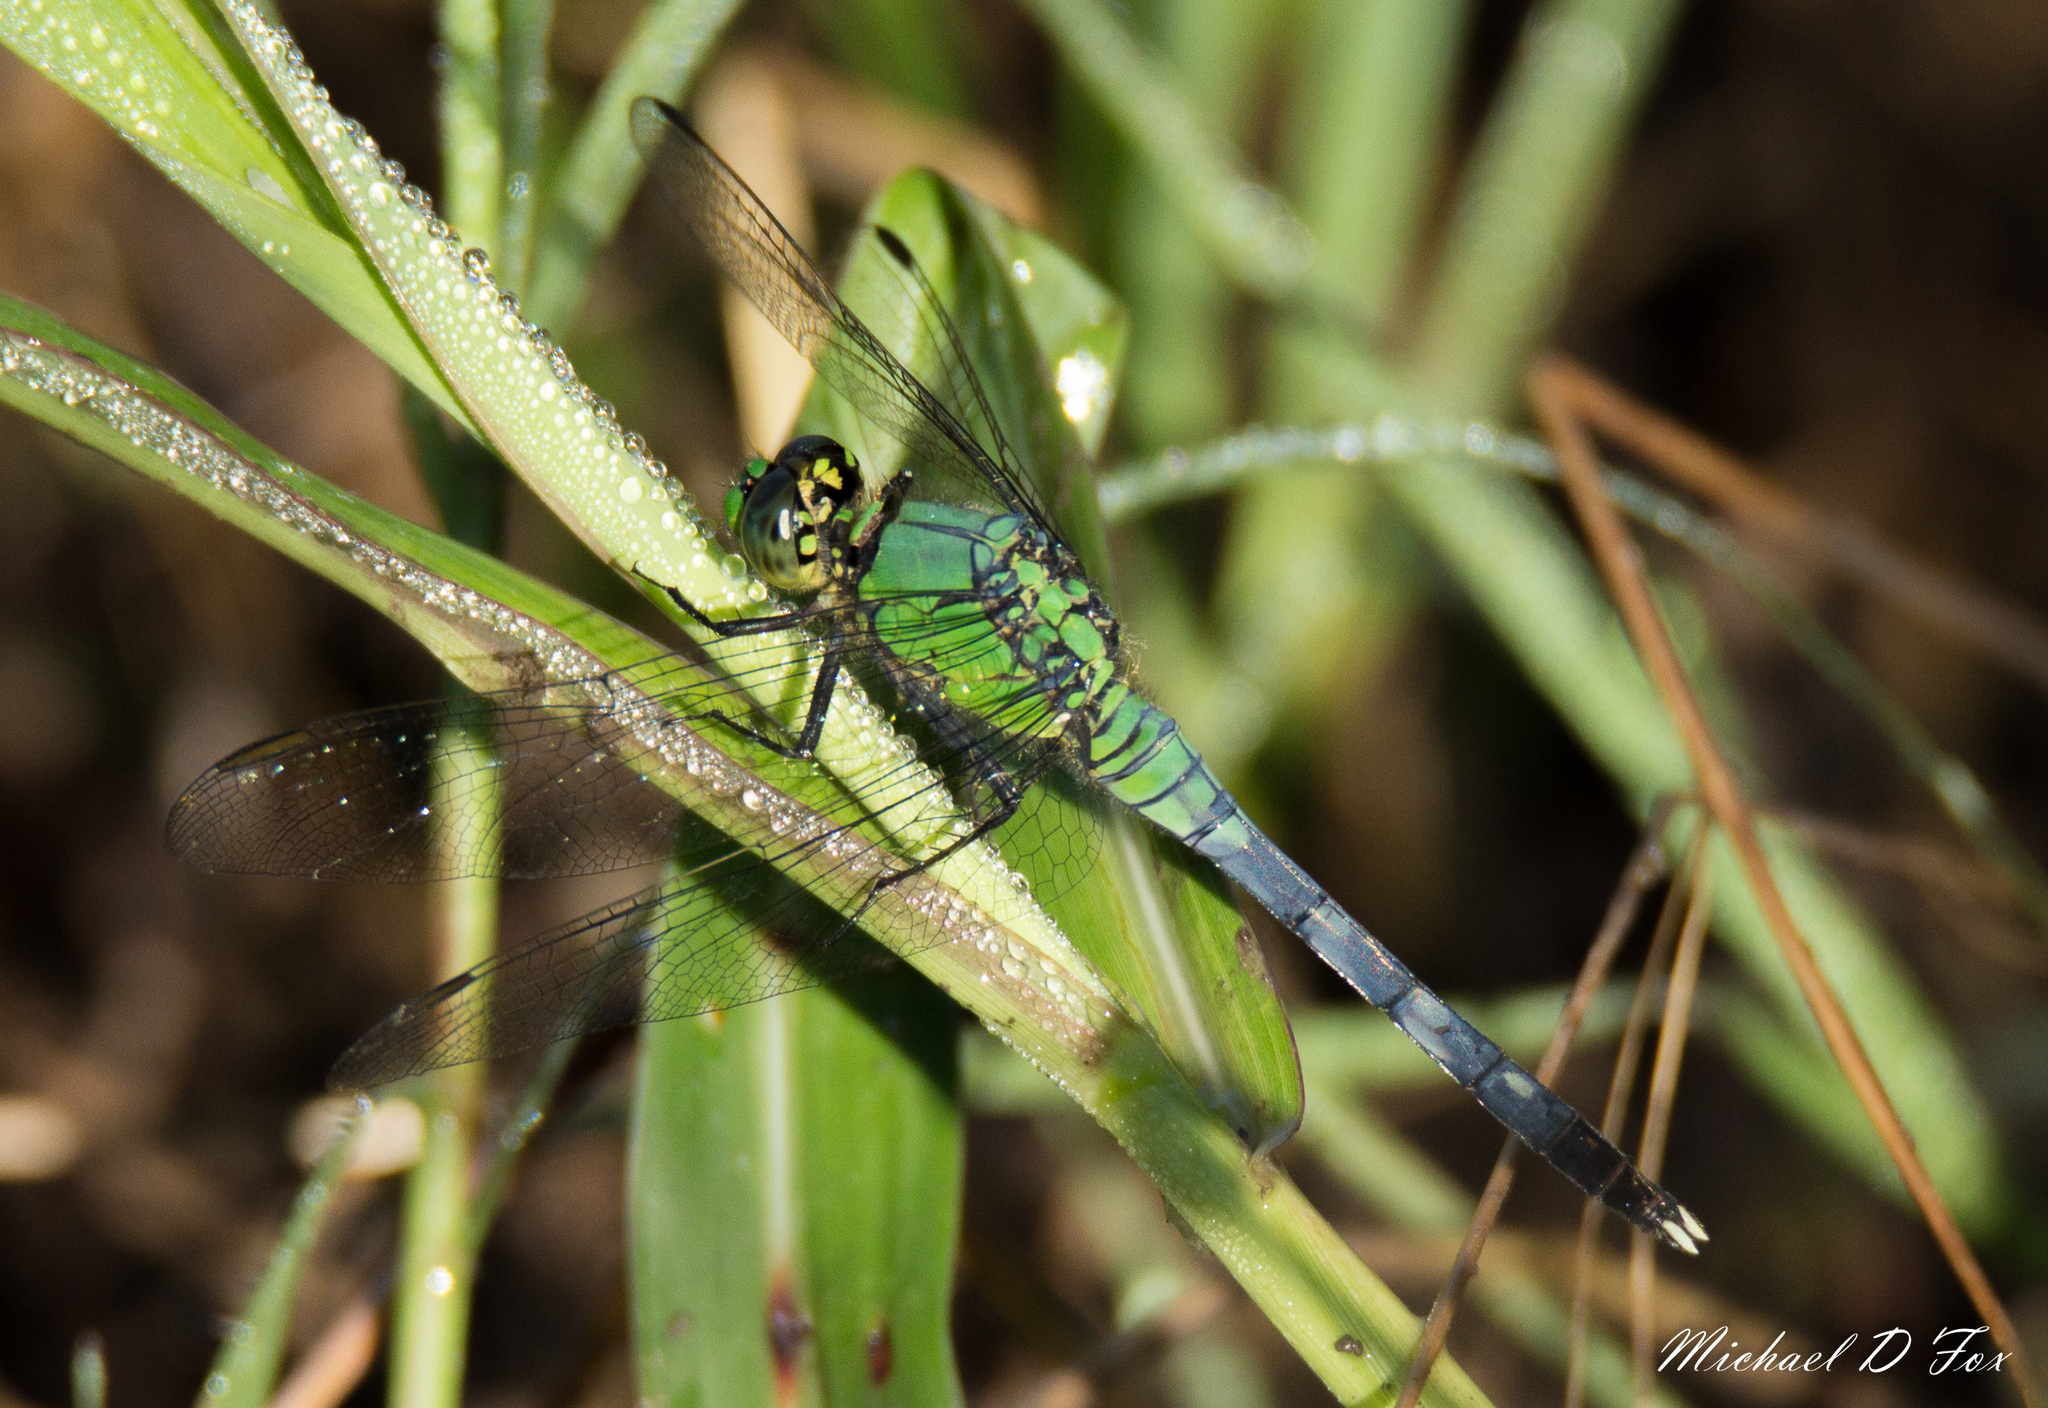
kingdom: Animalia
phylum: Arthropoda
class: Insecta
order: Odonata
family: Libellulidae
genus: Erythemis
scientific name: Erythemis simplicicollis
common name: Eastern pondhawk
